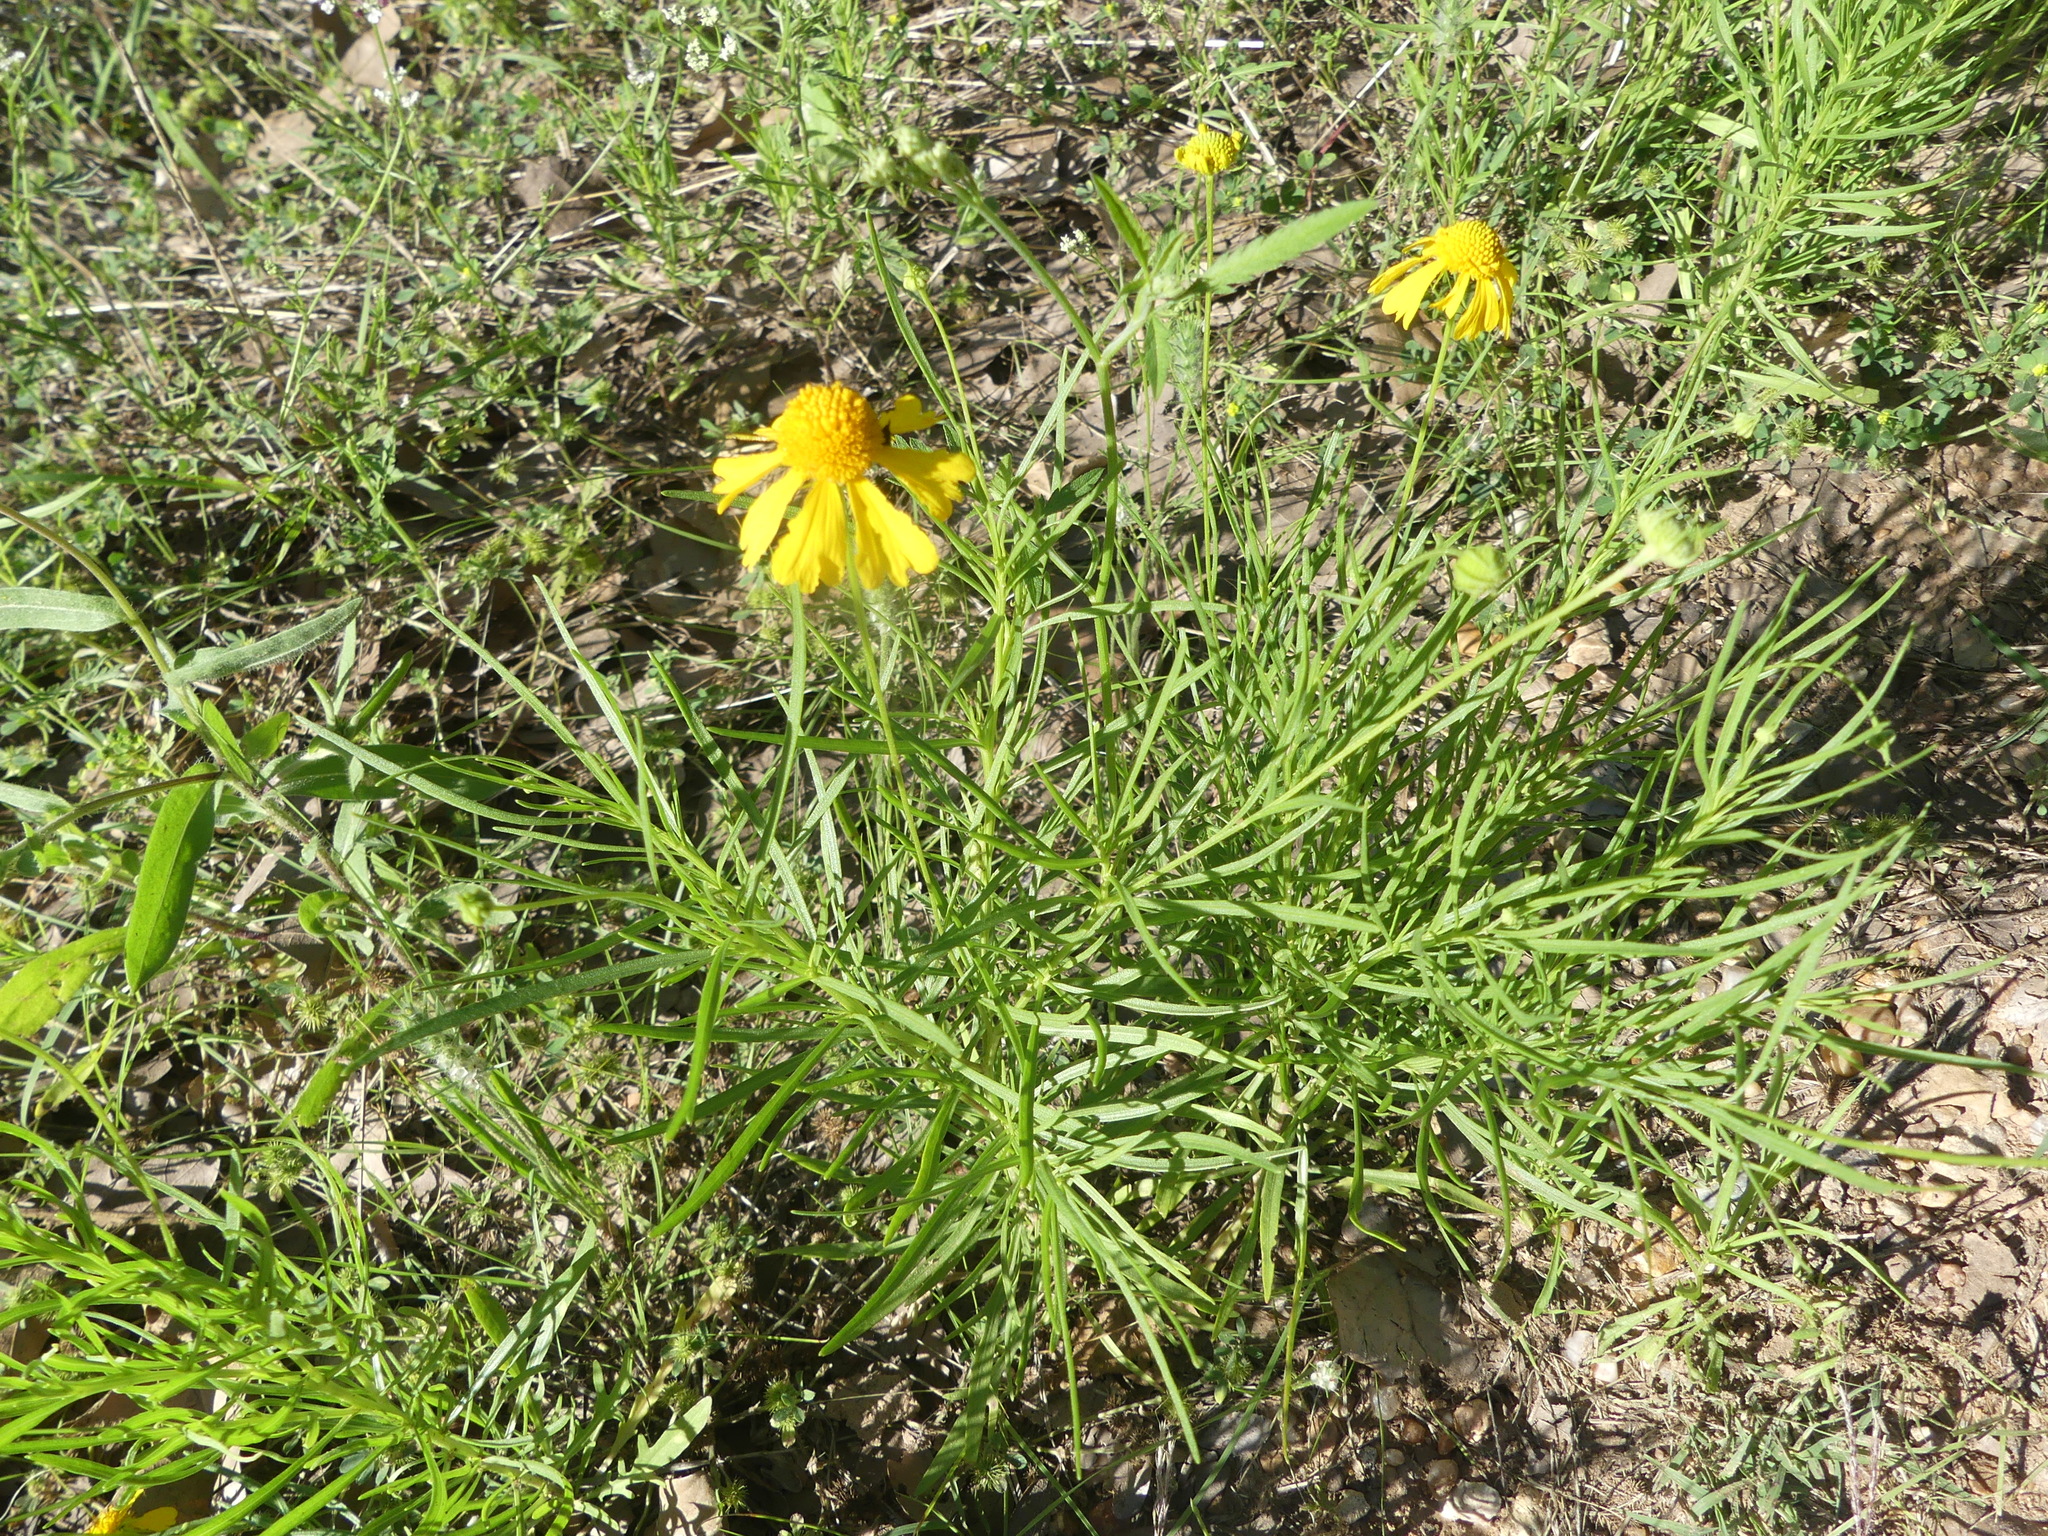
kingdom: Plantae
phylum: Tracheophyta
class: Magnoliopsida
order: Asterales
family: Asteraceae
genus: Helenium
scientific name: Helenium amarum
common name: Bitter sneezeweed
